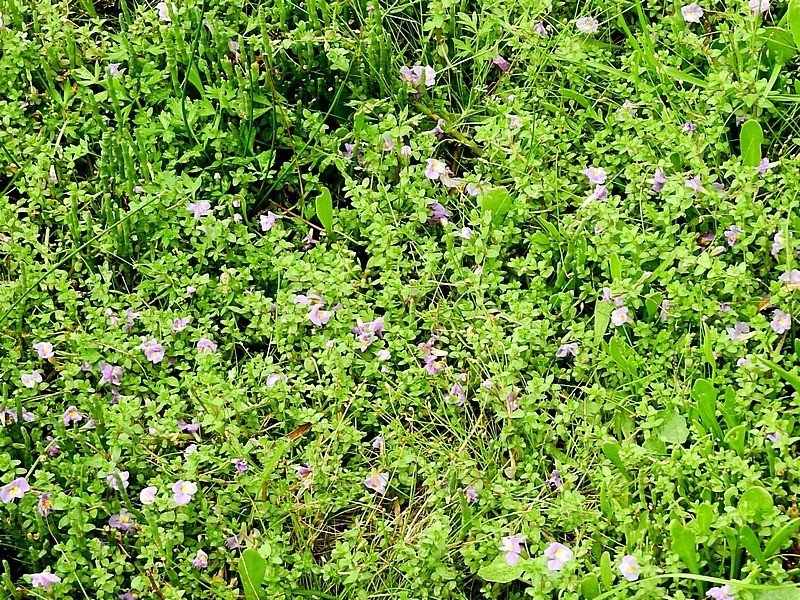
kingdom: Plantae
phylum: Tracheophyta
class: Magnoliopsida
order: Lamiales
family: Phrymaceae
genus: Thyridia
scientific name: Thyridia repens
